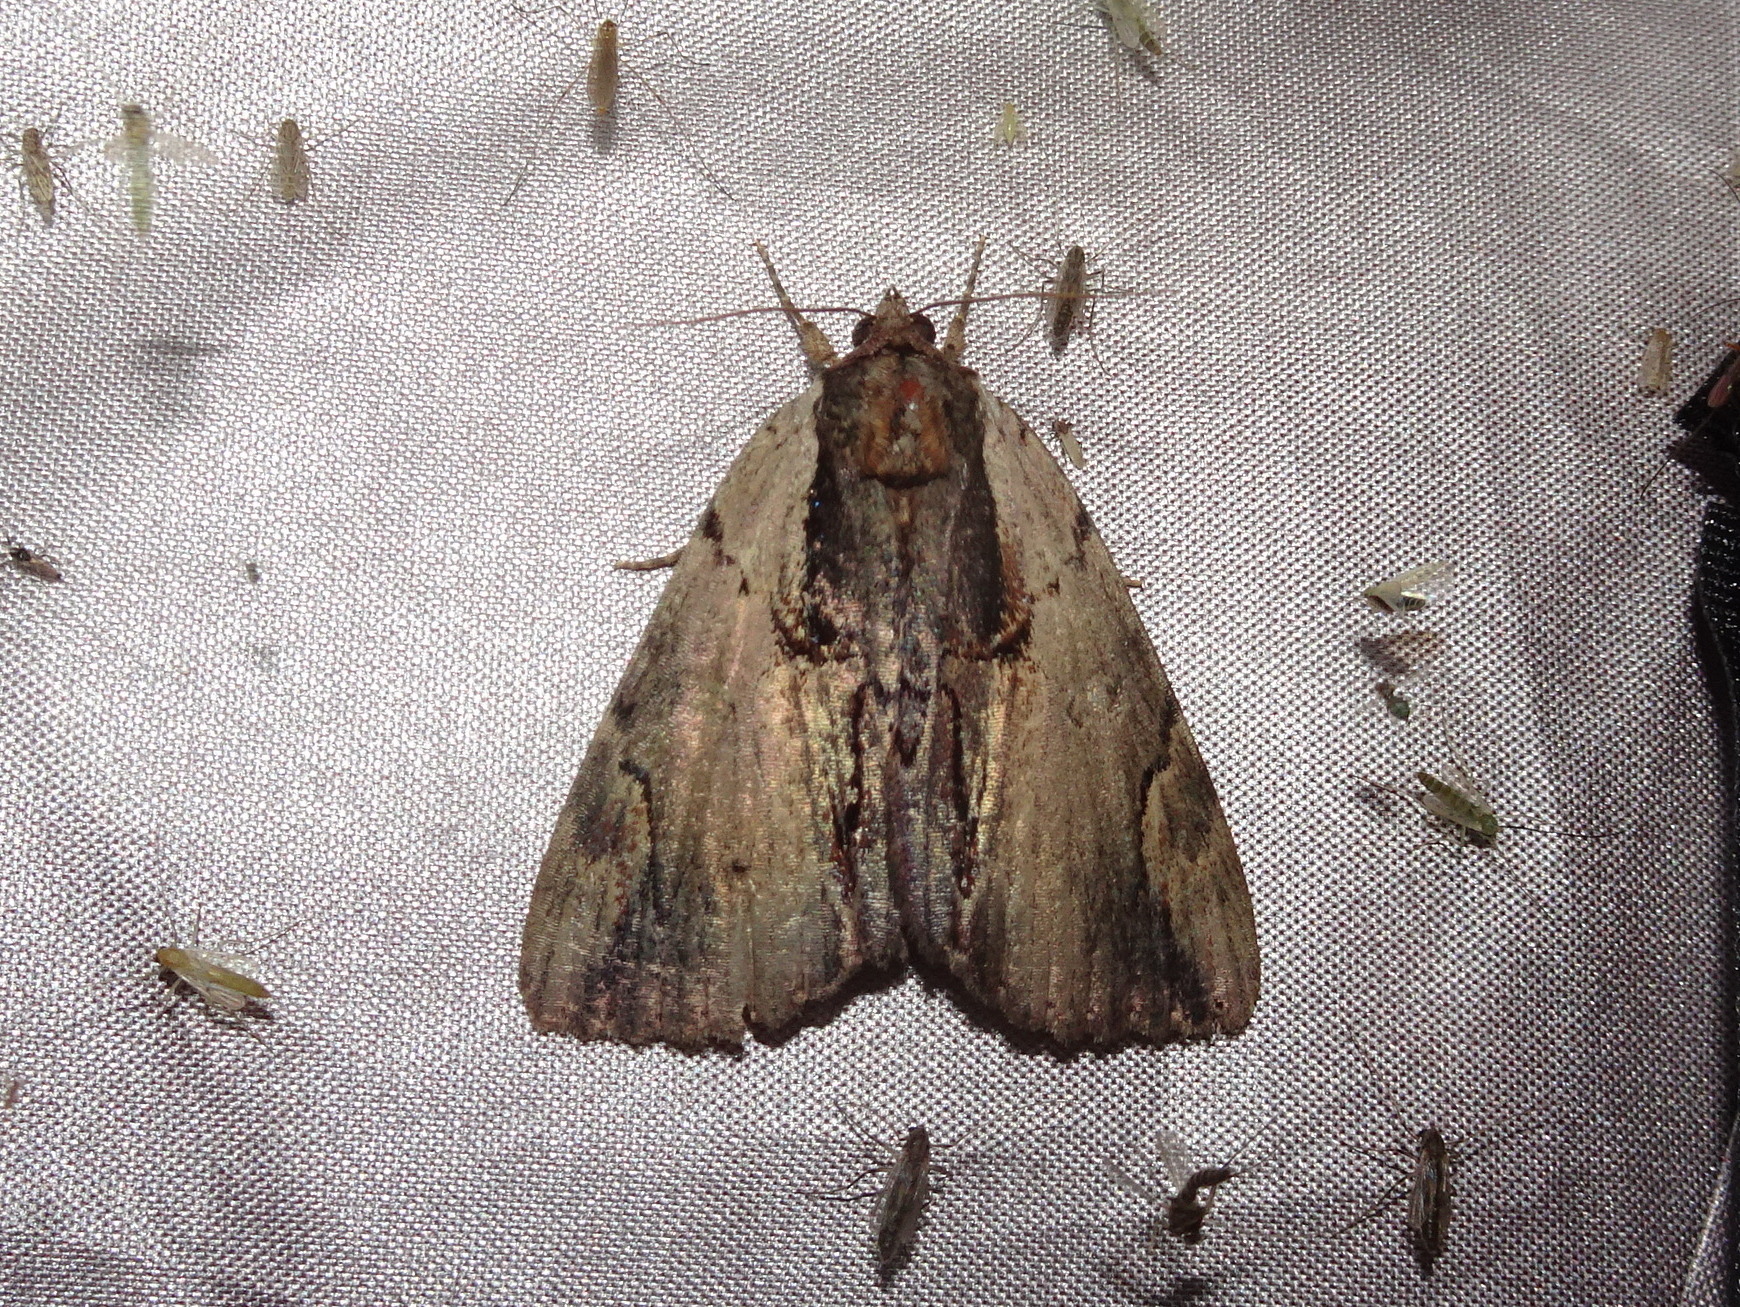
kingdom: Animalia
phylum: Arthropoda
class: Insecta
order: Lepidoptera
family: Erebidae
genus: Catocala
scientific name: Catocala ultronia
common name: Ultronia underwing
